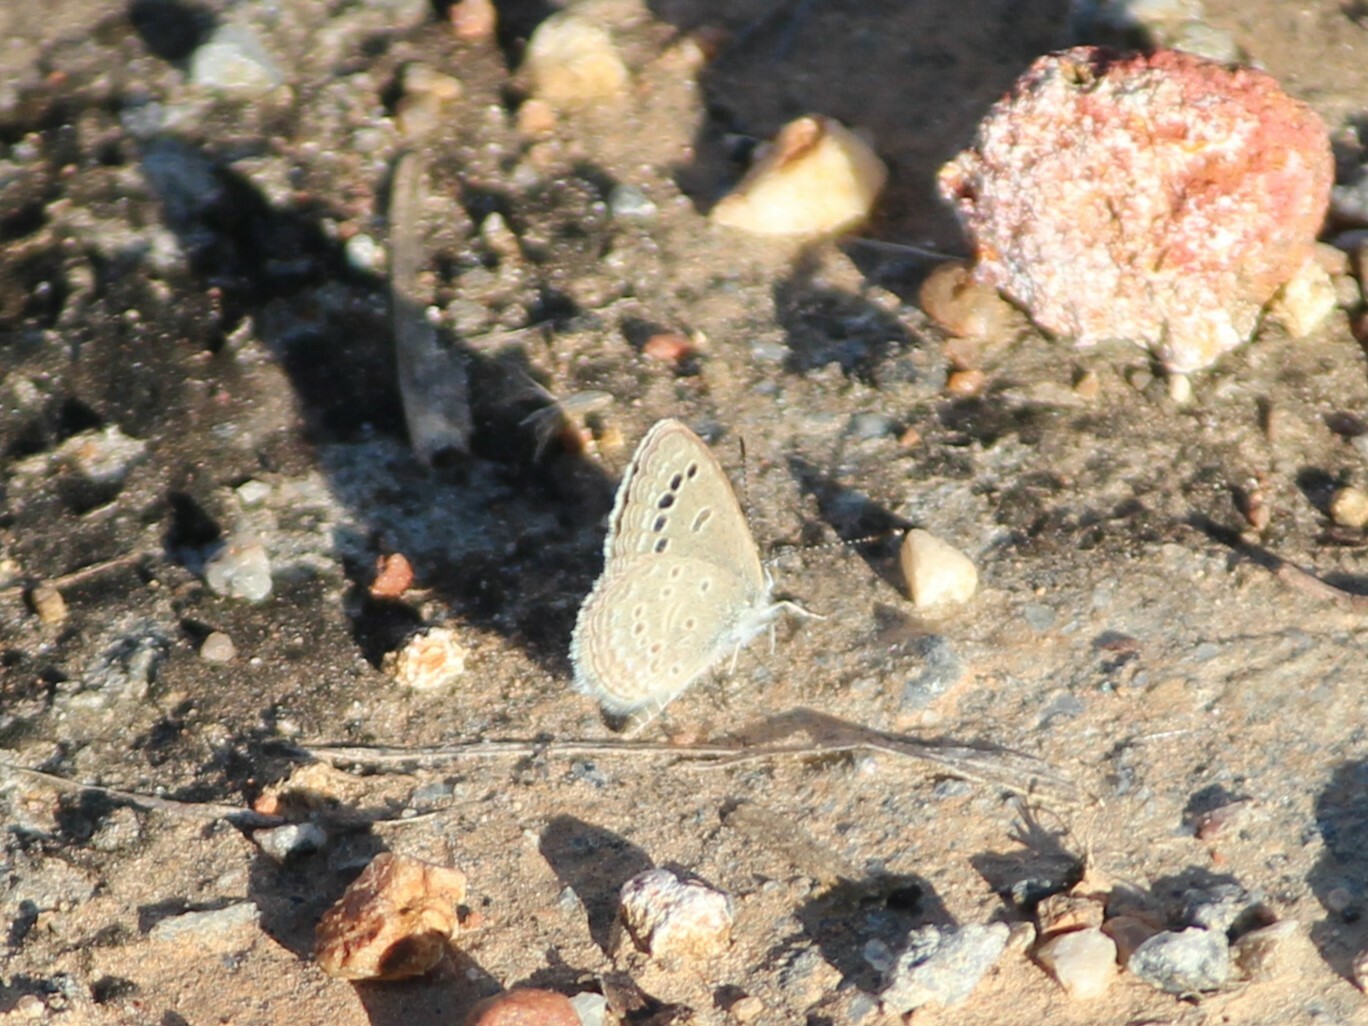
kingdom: Animalia
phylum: Arthropoda
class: Insecta
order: Lepidoptera
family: Lycaenidae
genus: Zizina
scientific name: Zizina otis
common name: Lesser grass blue
